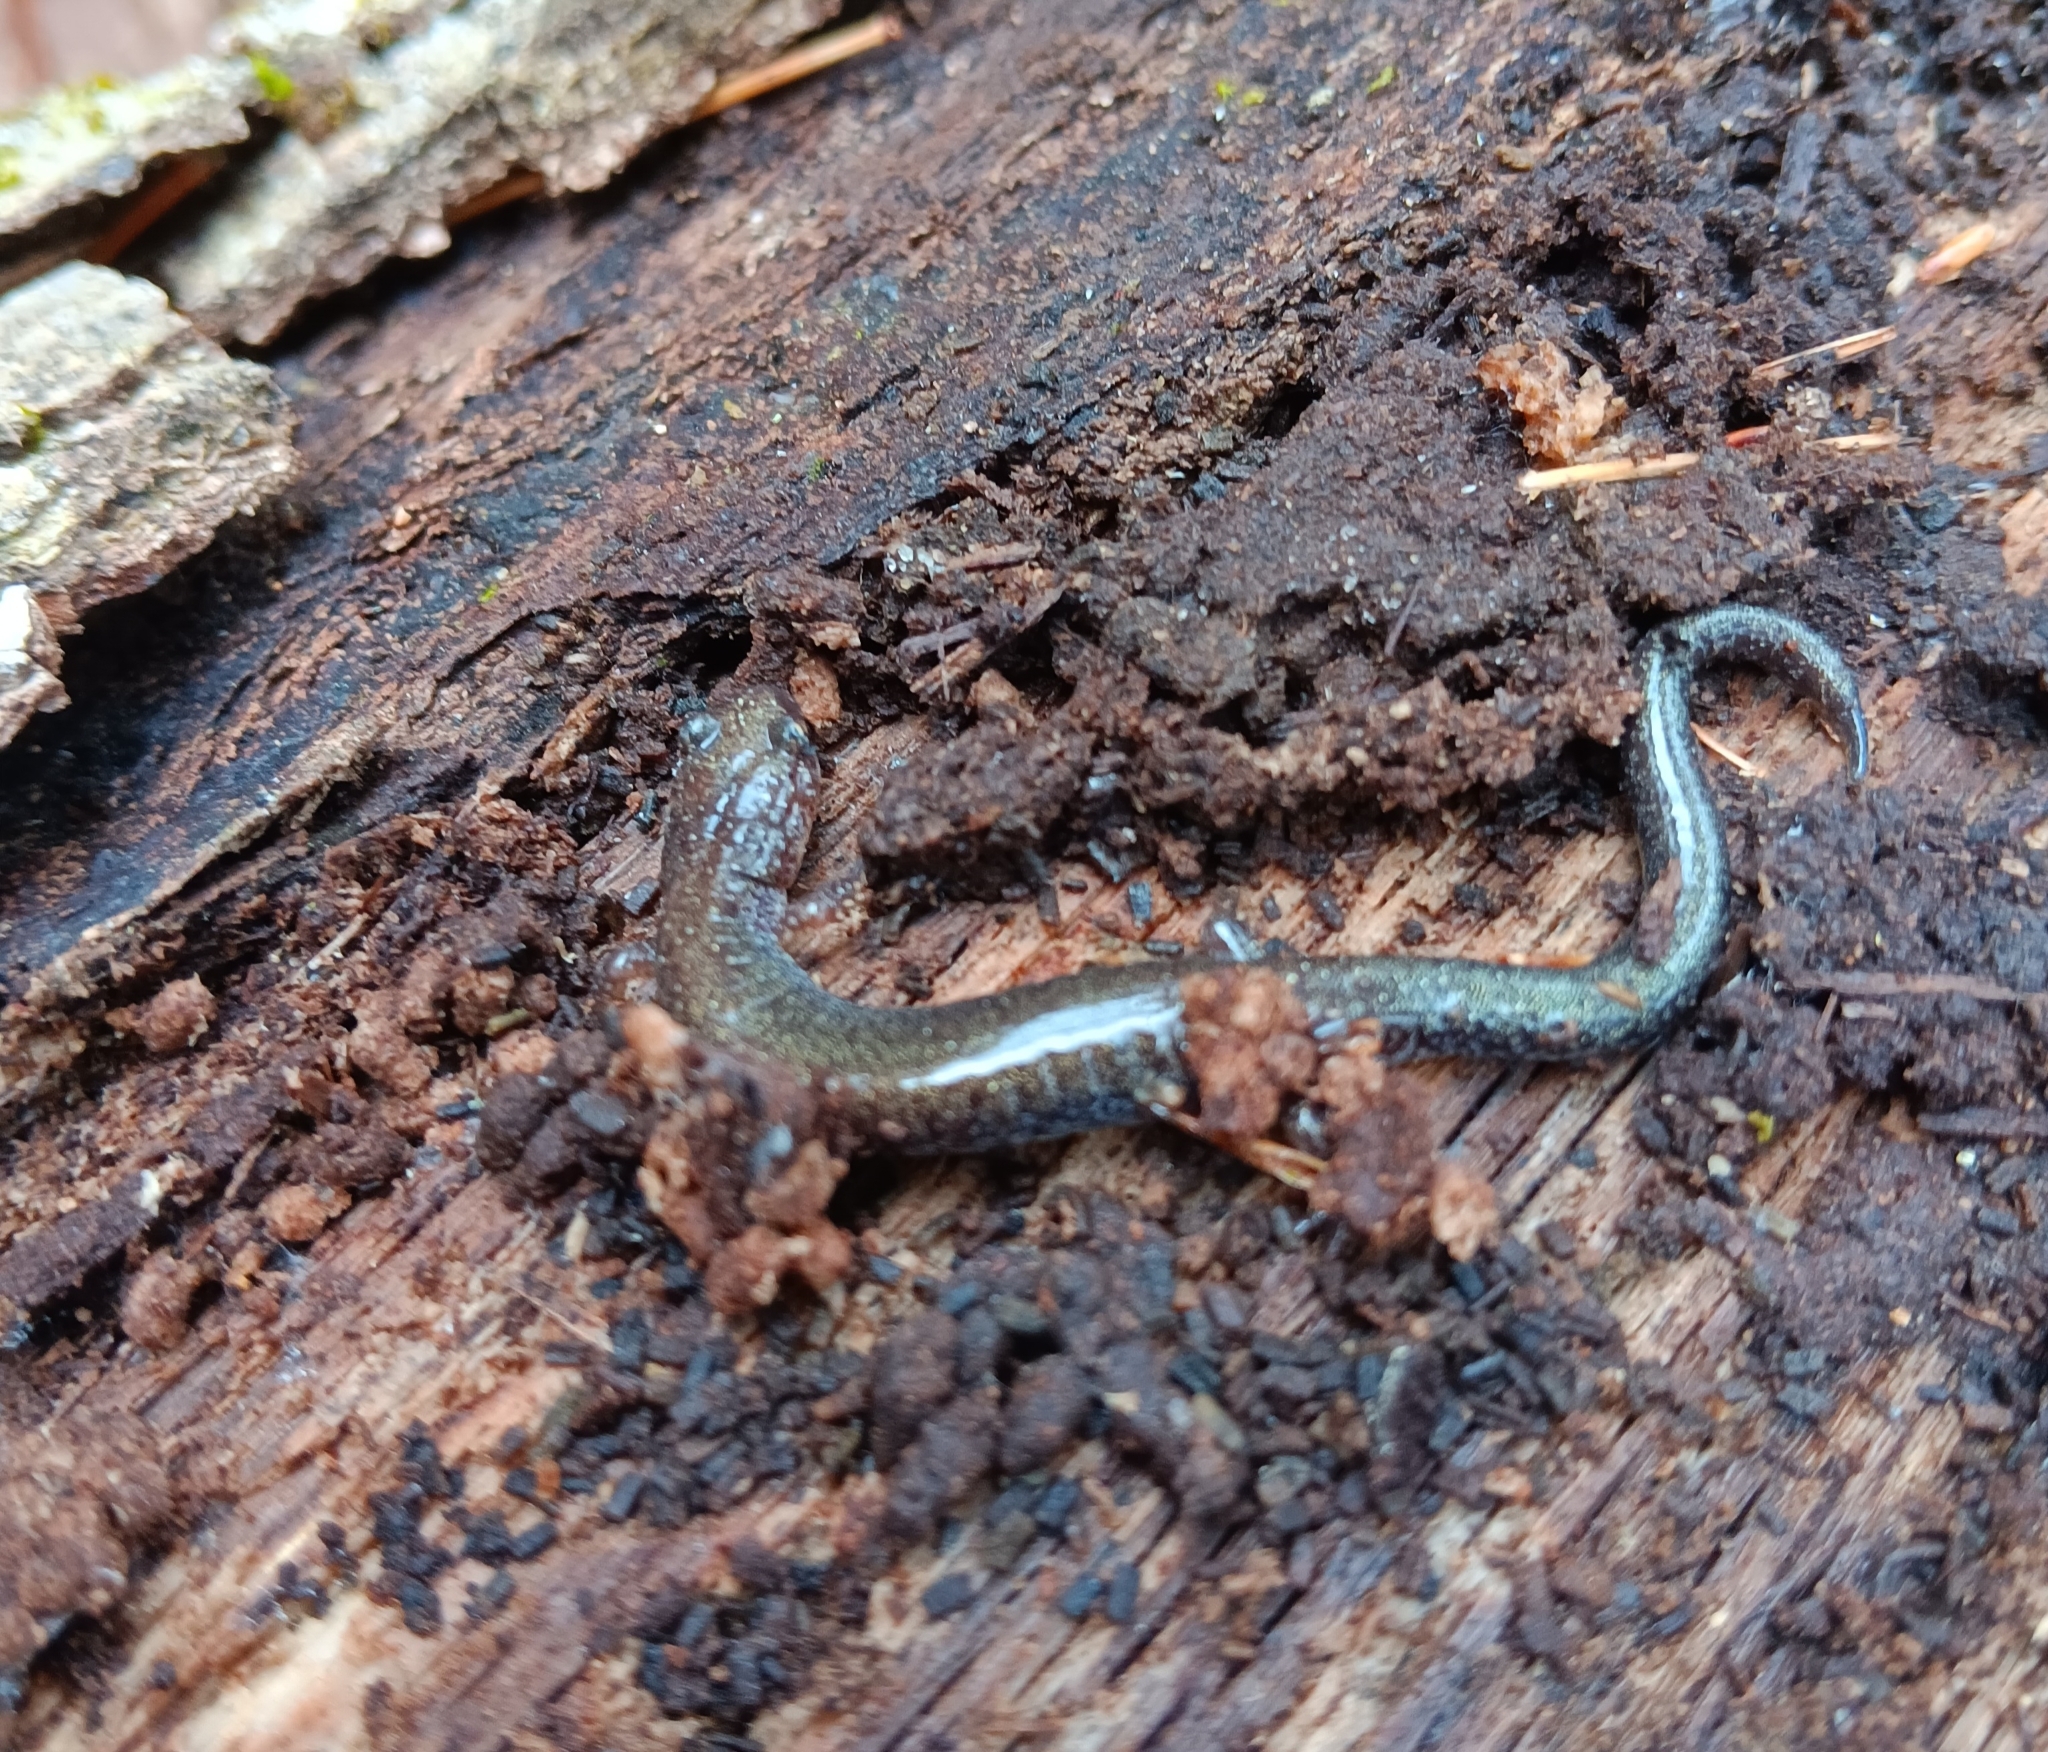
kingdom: Animalia
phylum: Chordata
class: Amphibia
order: Caudata
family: Plethodontidae
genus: Plethodon
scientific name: Plethodon cinereus
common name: Redback salamander
